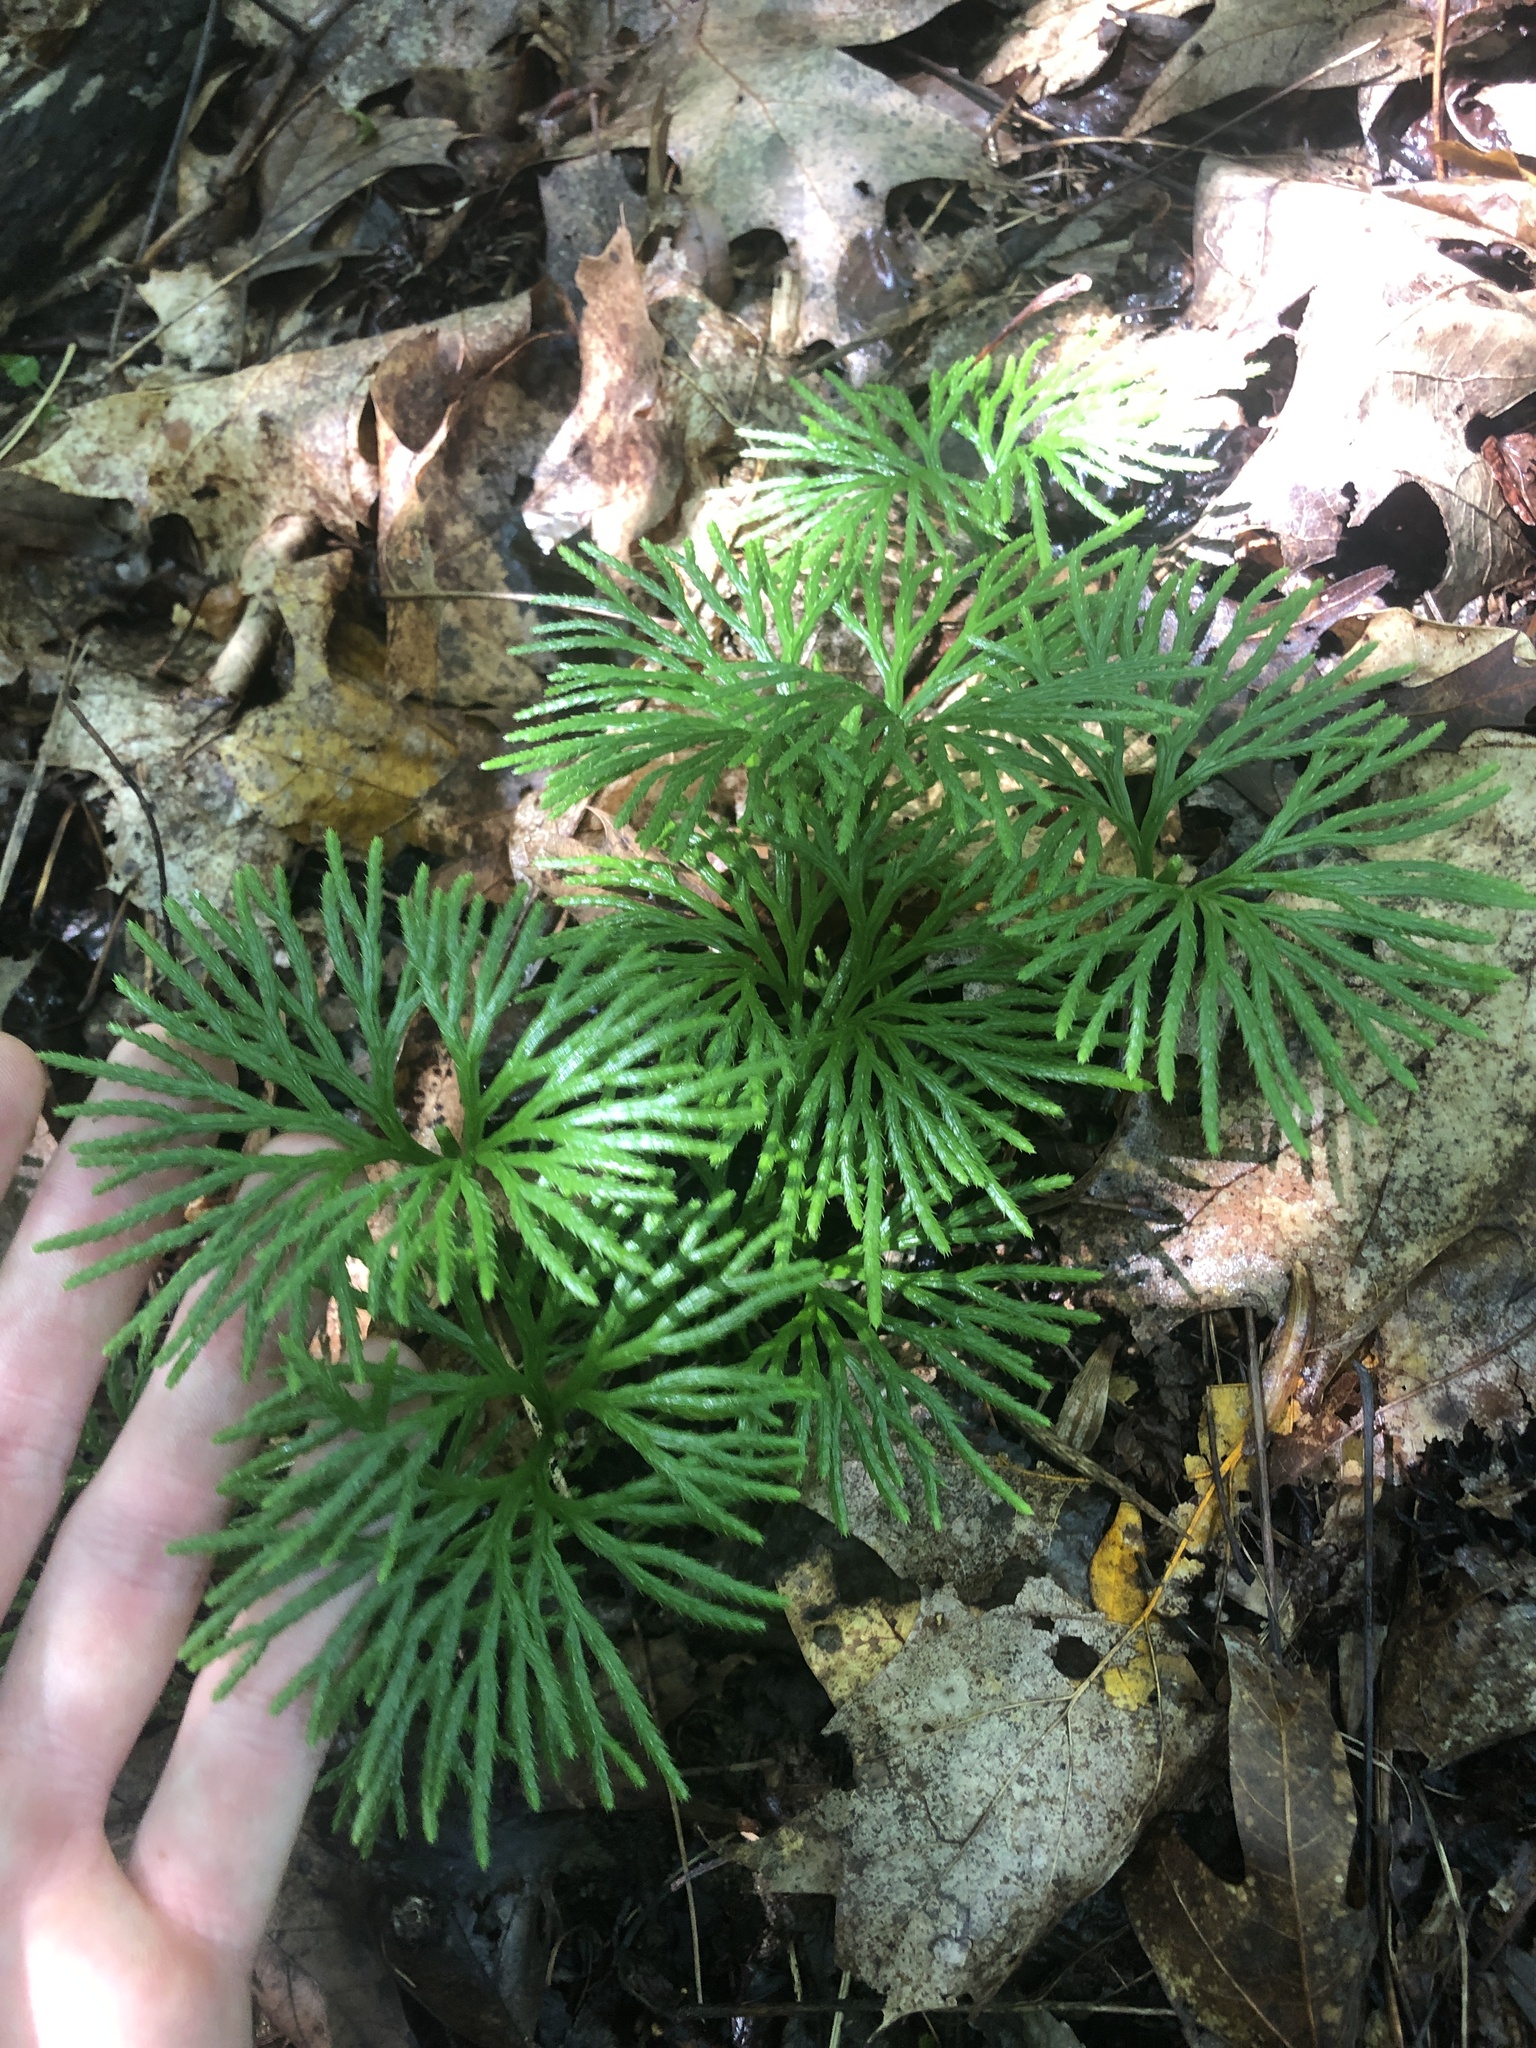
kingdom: Plantae
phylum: Tracheophyta
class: Lycopodiopsida
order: Lycopodiales
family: Lycopodiaceae
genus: Diphasiastrum
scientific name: Diphasiastrum digitatum
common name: Southern running-pine
